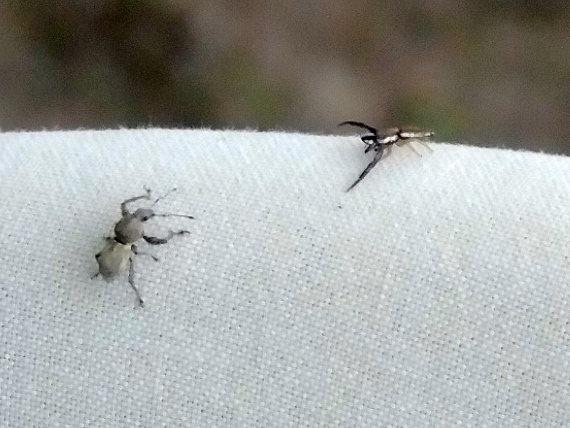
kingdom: Animalia
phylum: Arthropoda
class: Insecta
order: Coleoptera
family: Curculionidae
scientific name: Curculionidae
